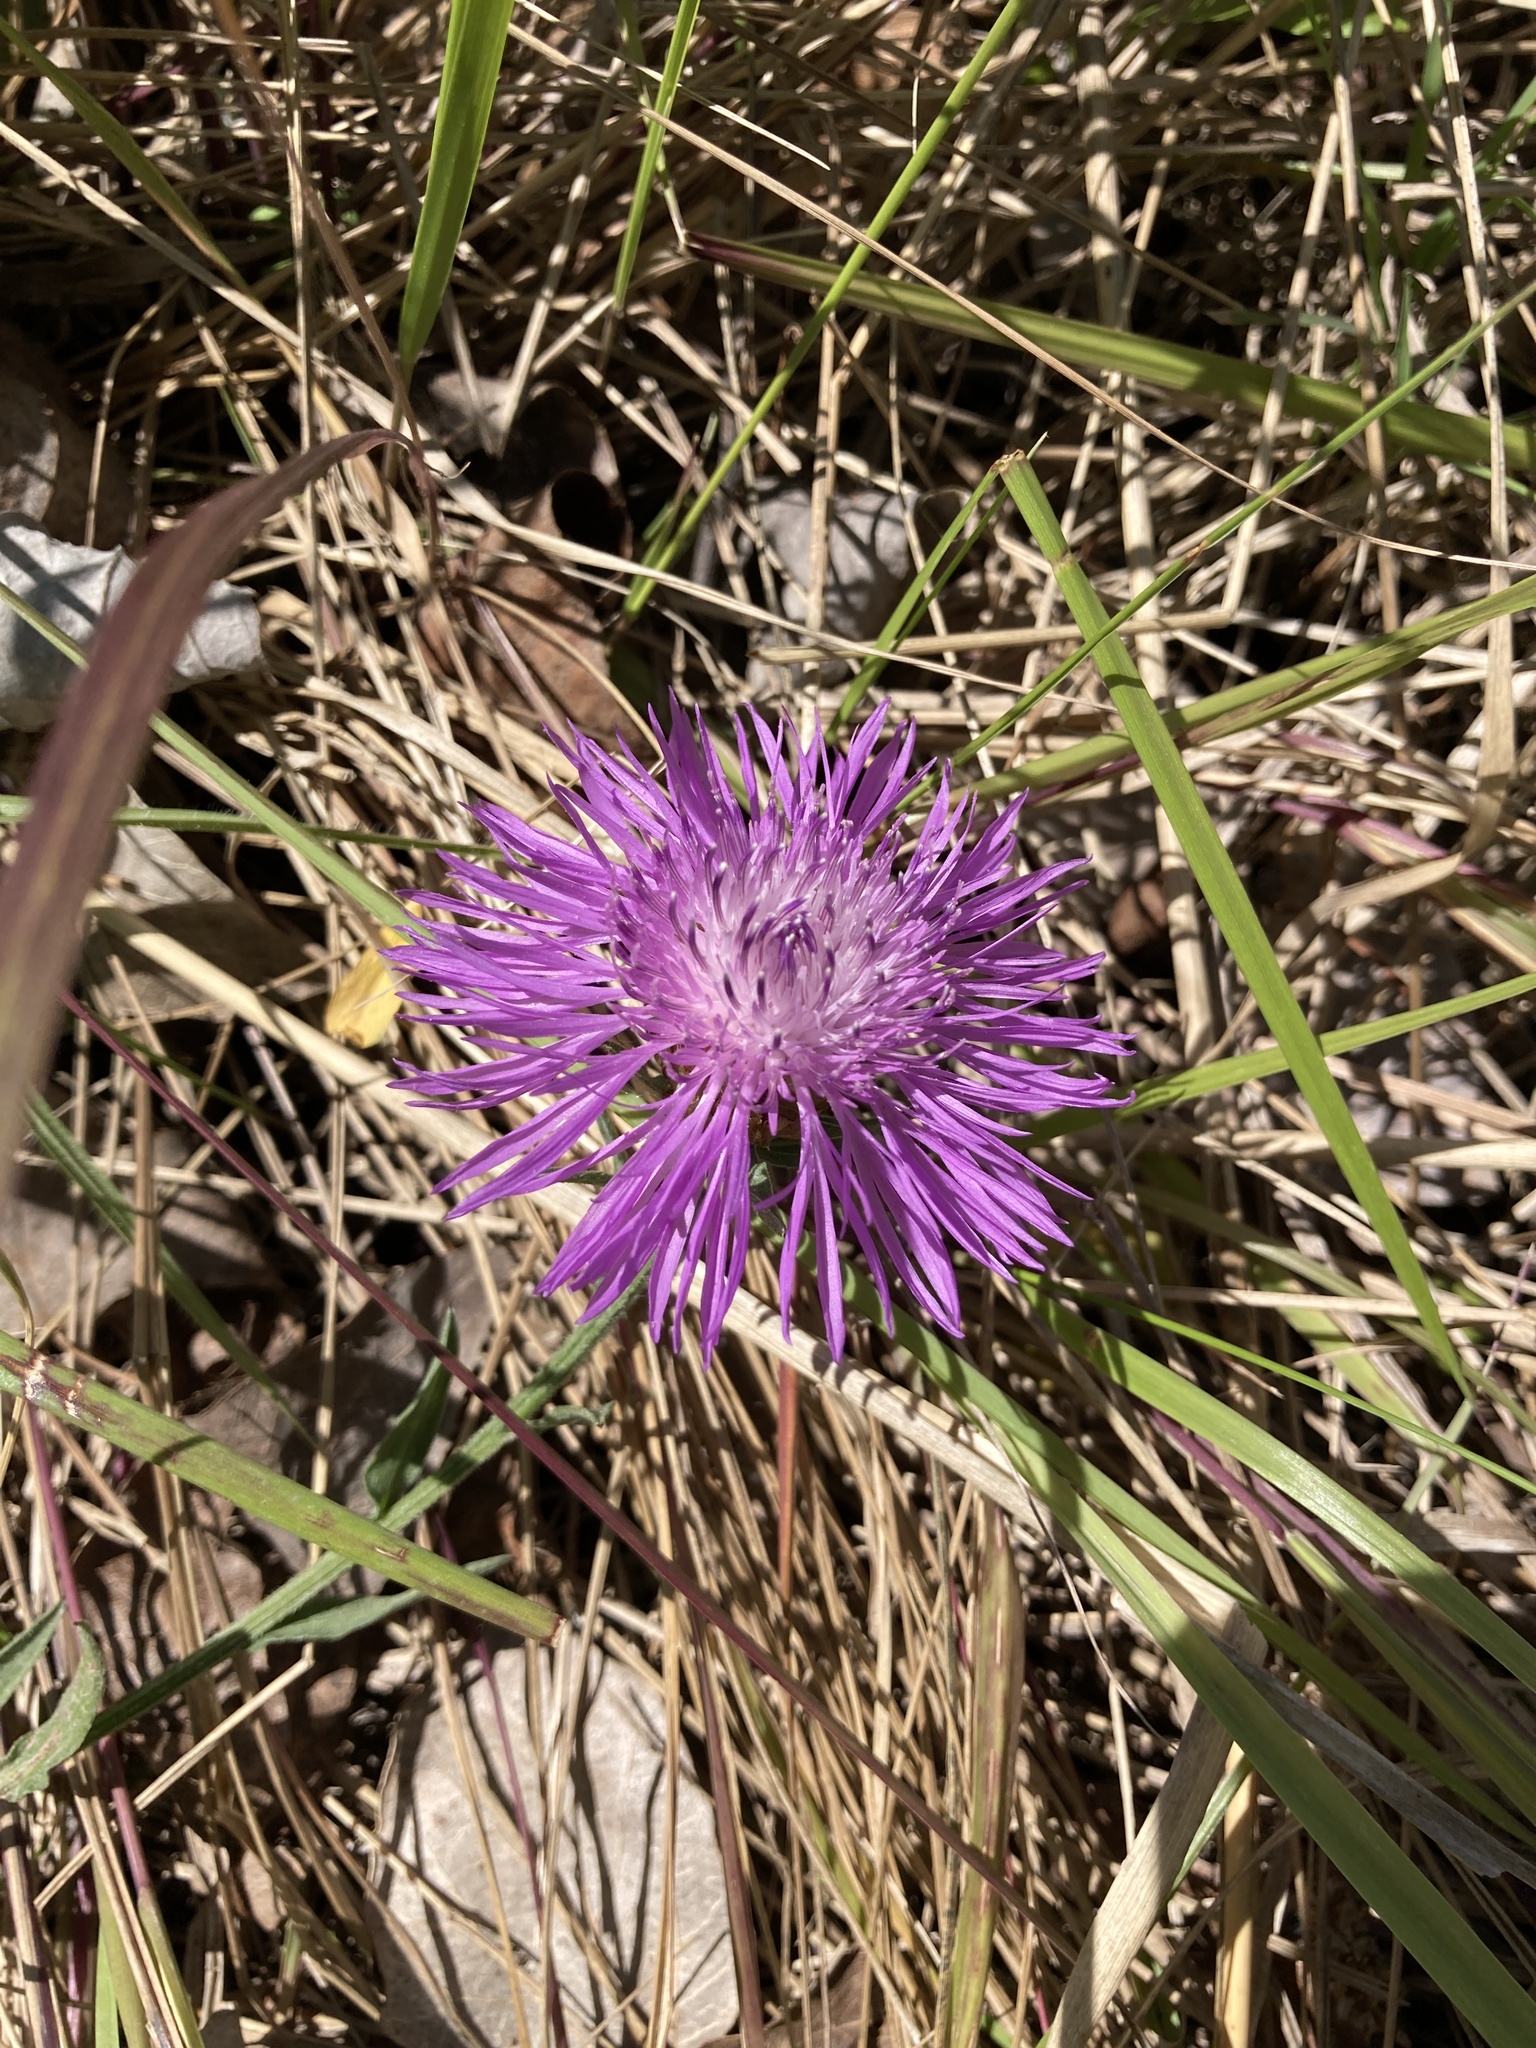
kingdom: Plantae
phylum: Tracheophyta
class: Magnoliopsida
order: Asterales
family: Asteraceae
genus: Centaurea
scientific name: Centaurea jacea
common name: Brown knapweed
